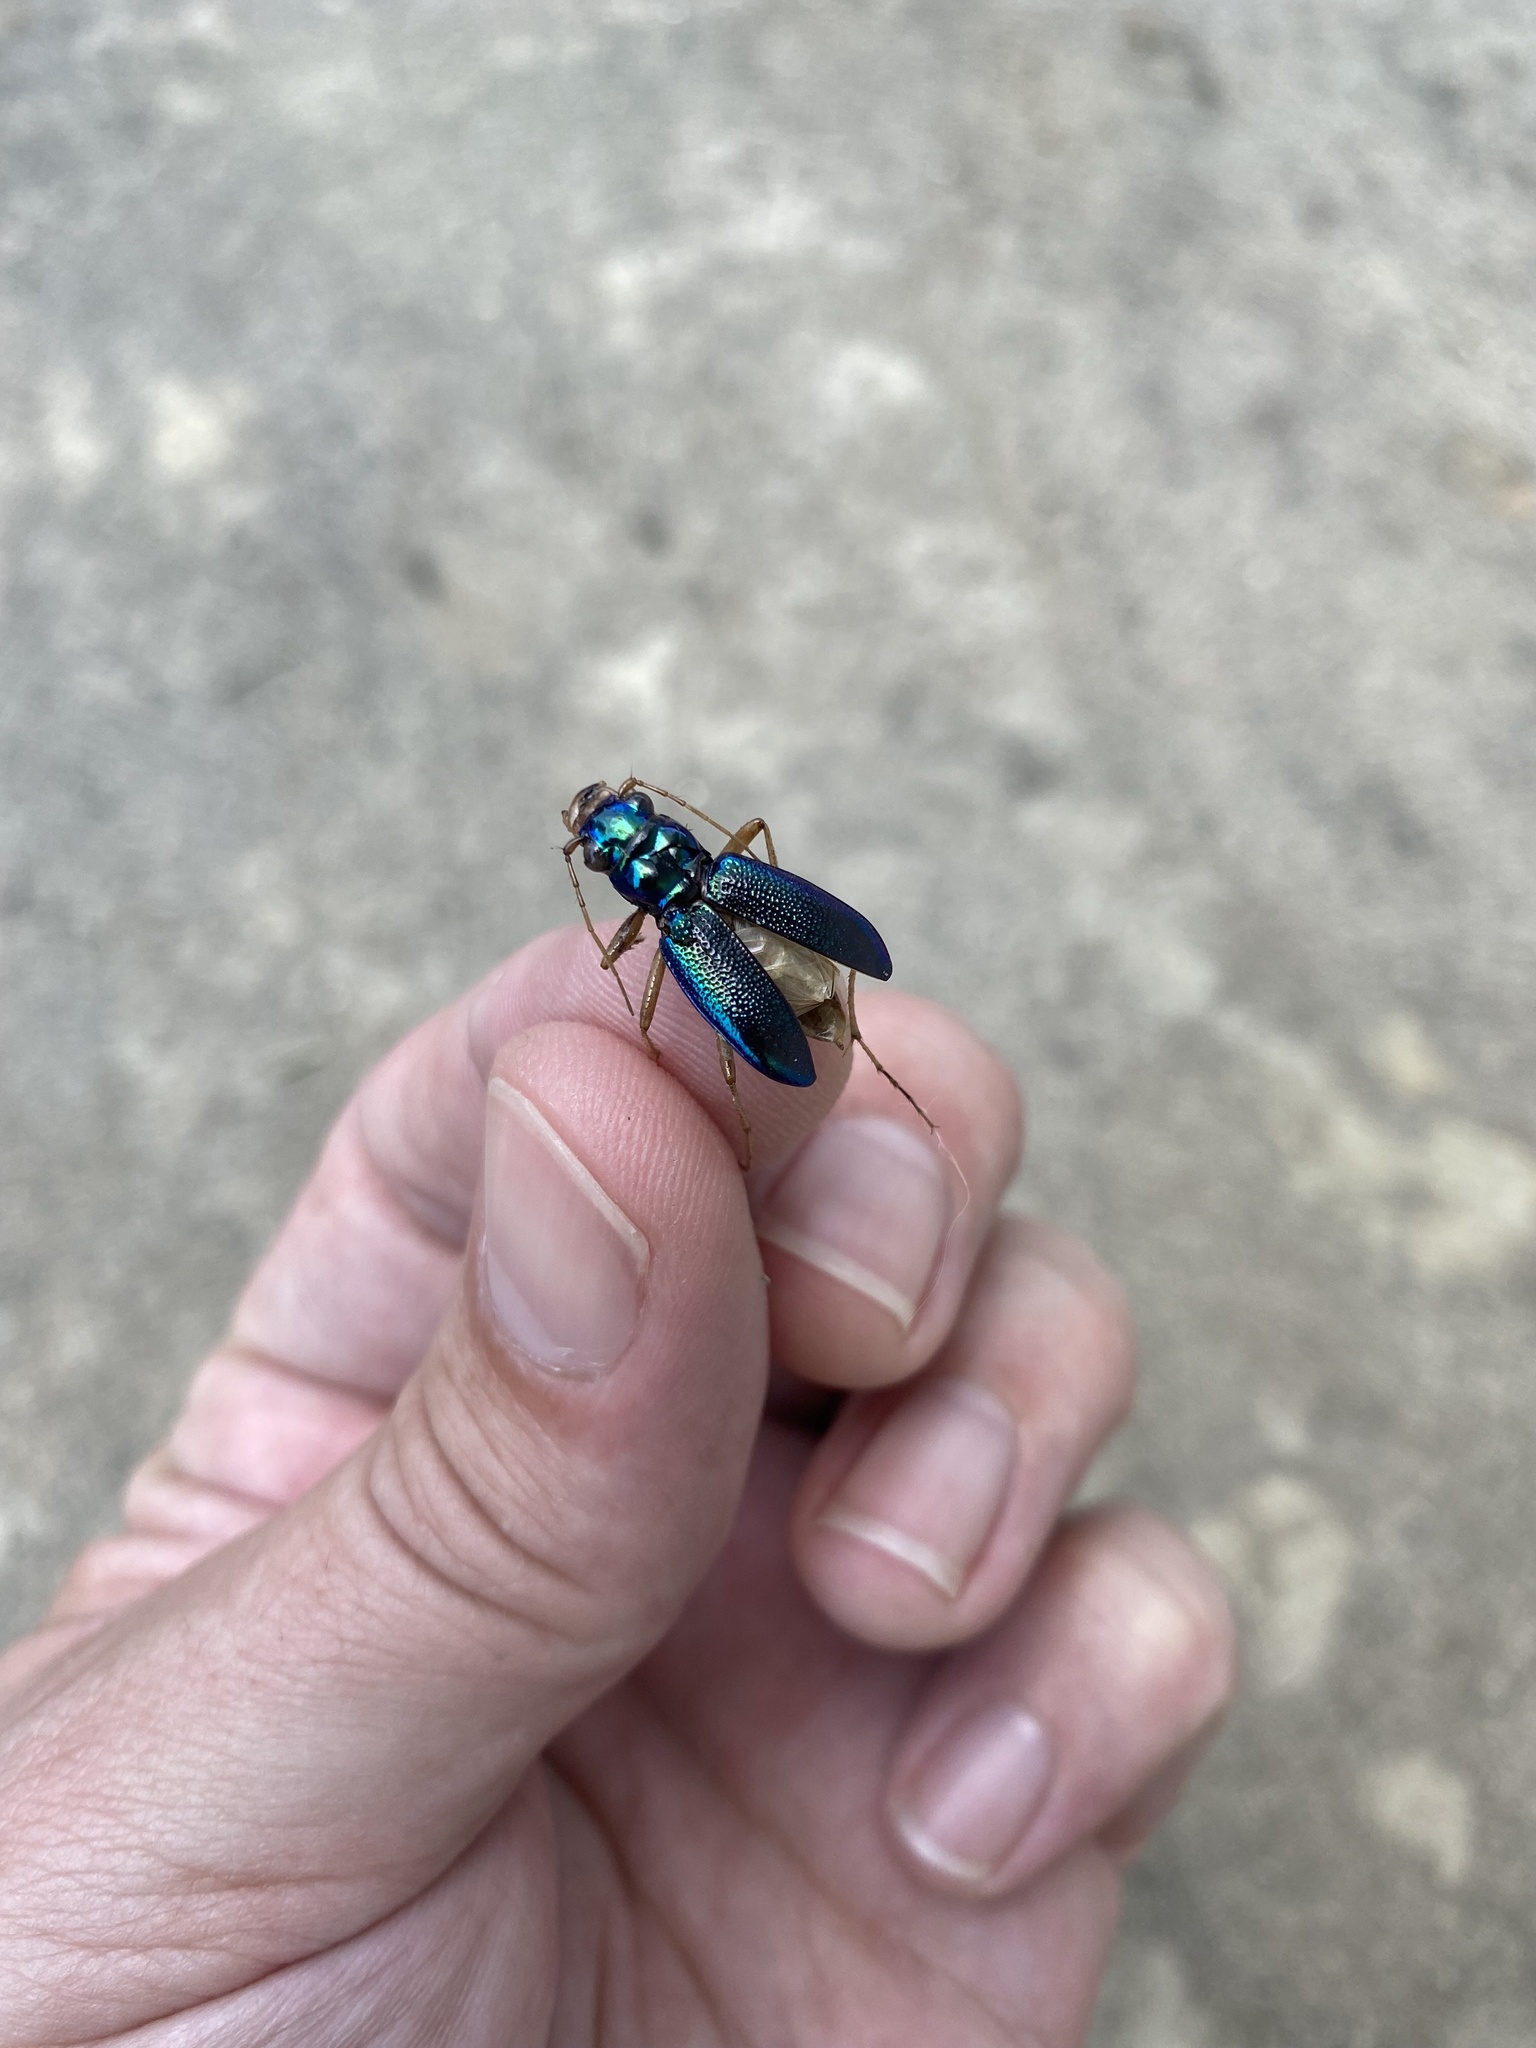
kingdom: Animalia
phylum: Arthropoda
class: Insecta
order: Coleoptera
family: Carabidae
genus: Tetracha
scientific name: Tetracha virginica
